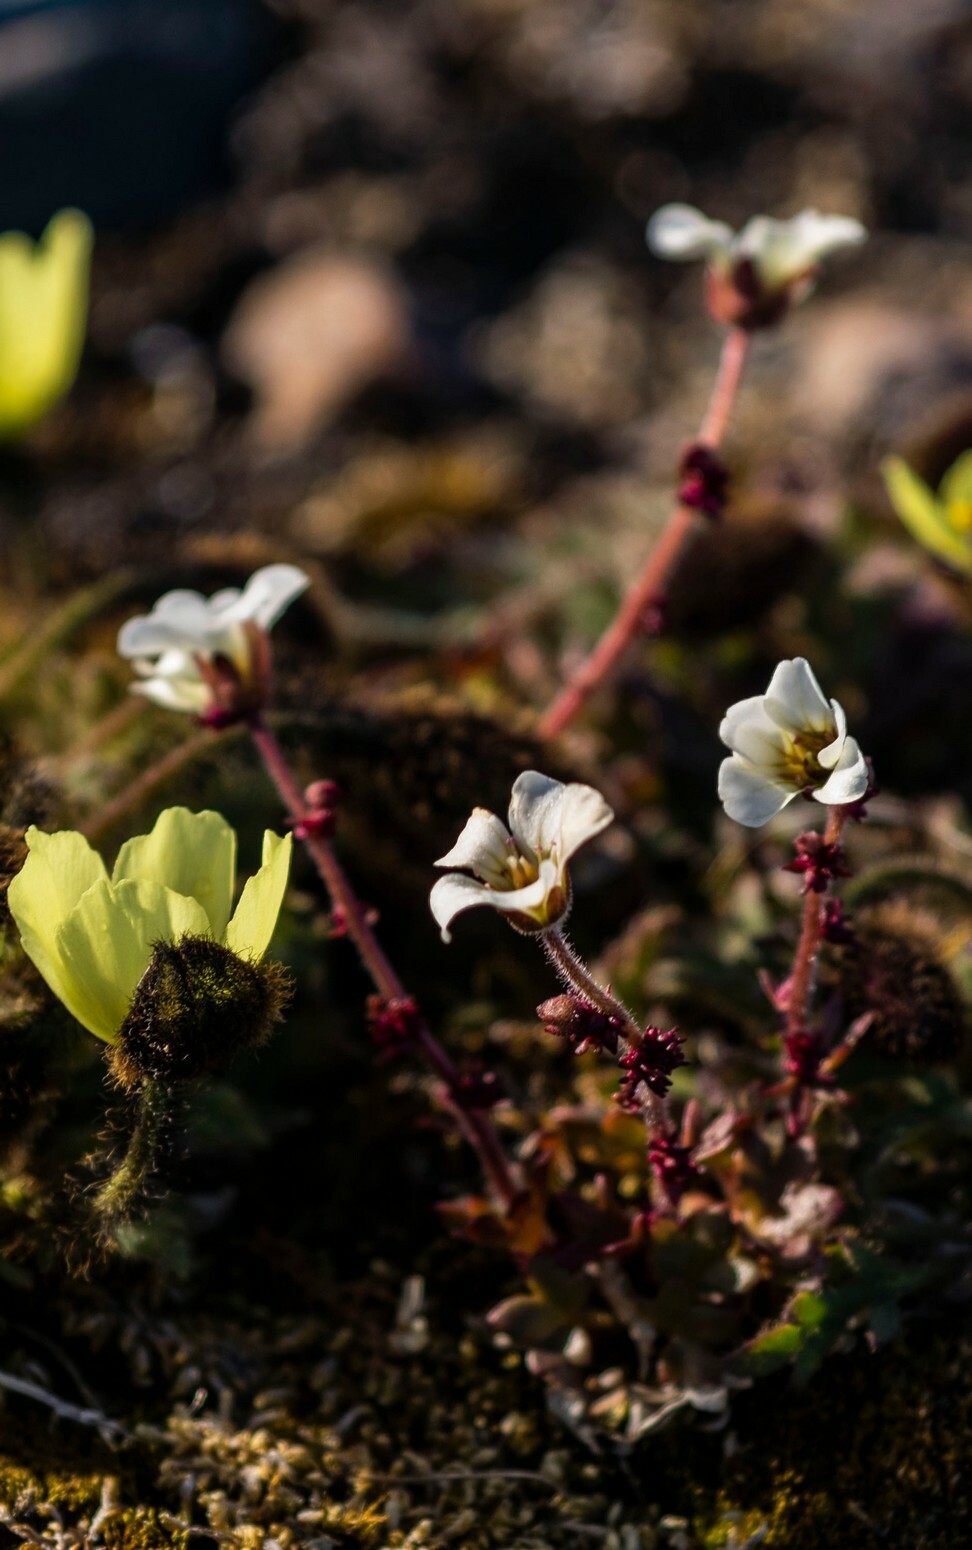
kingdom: Plantae
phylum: Tracheophyta
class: Magnoliopsida
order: Saxifragales
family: Saxifragaceae
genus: Saxifraga
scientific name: Saxifraga cernua
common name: Drooping saxifrage
